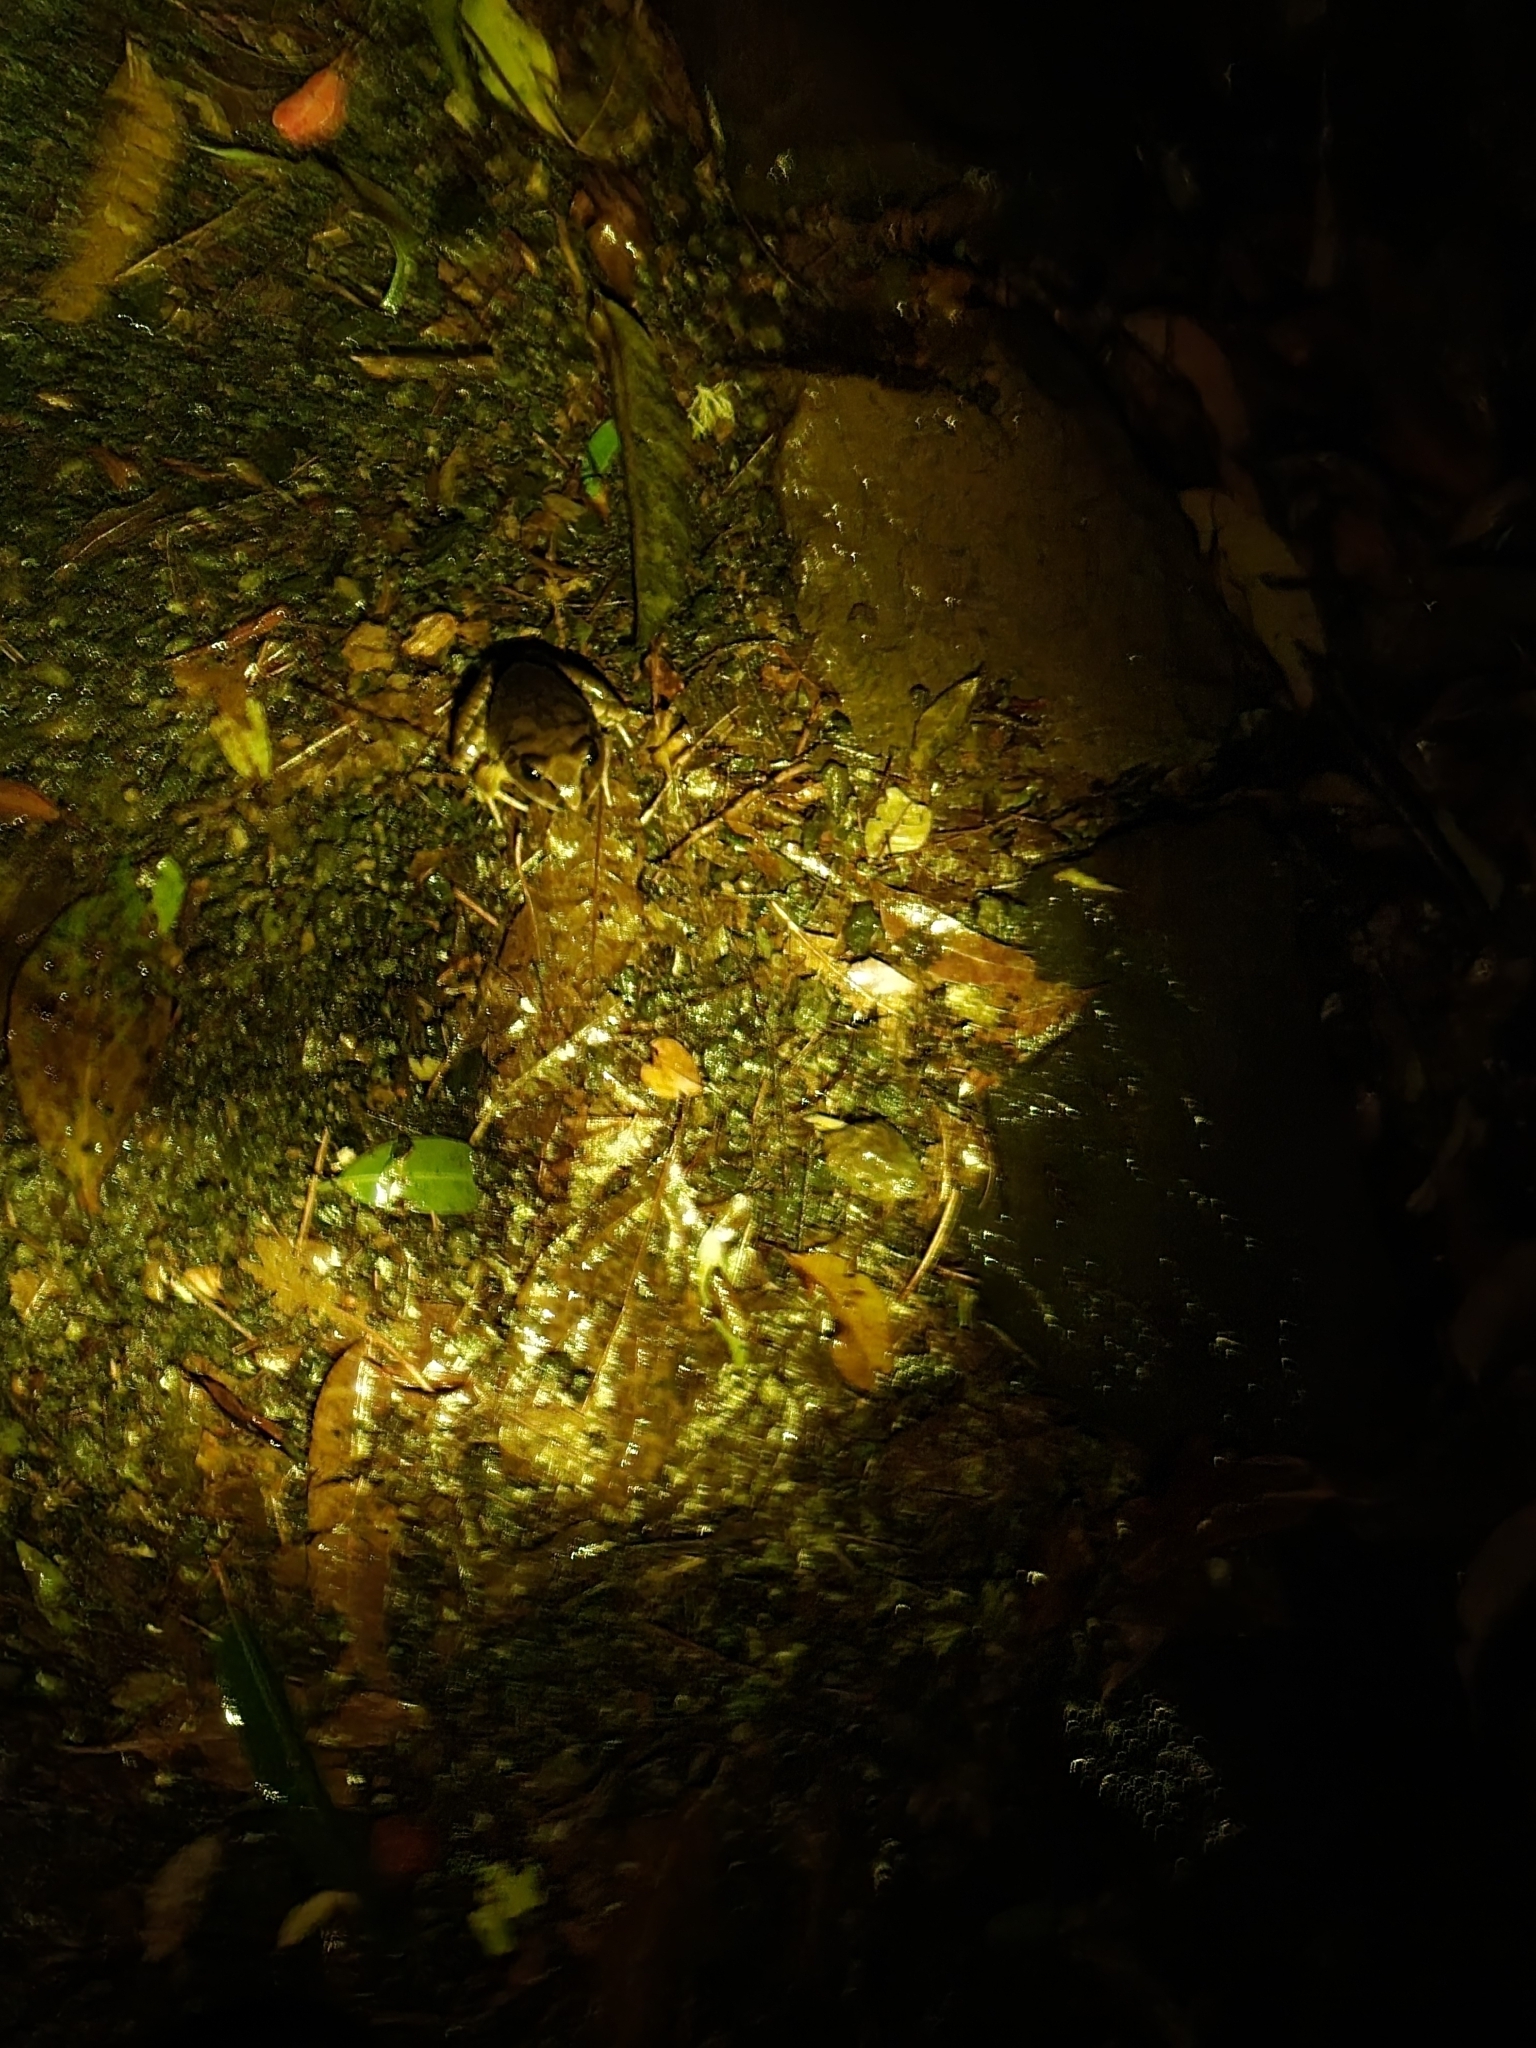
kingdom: Animalia
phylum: Chordata
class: Amphibia
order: Anura
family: Myobatrachidae
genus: Mixophyes
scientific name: Mixophyes fasciolatus
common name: Great barred river-frog
